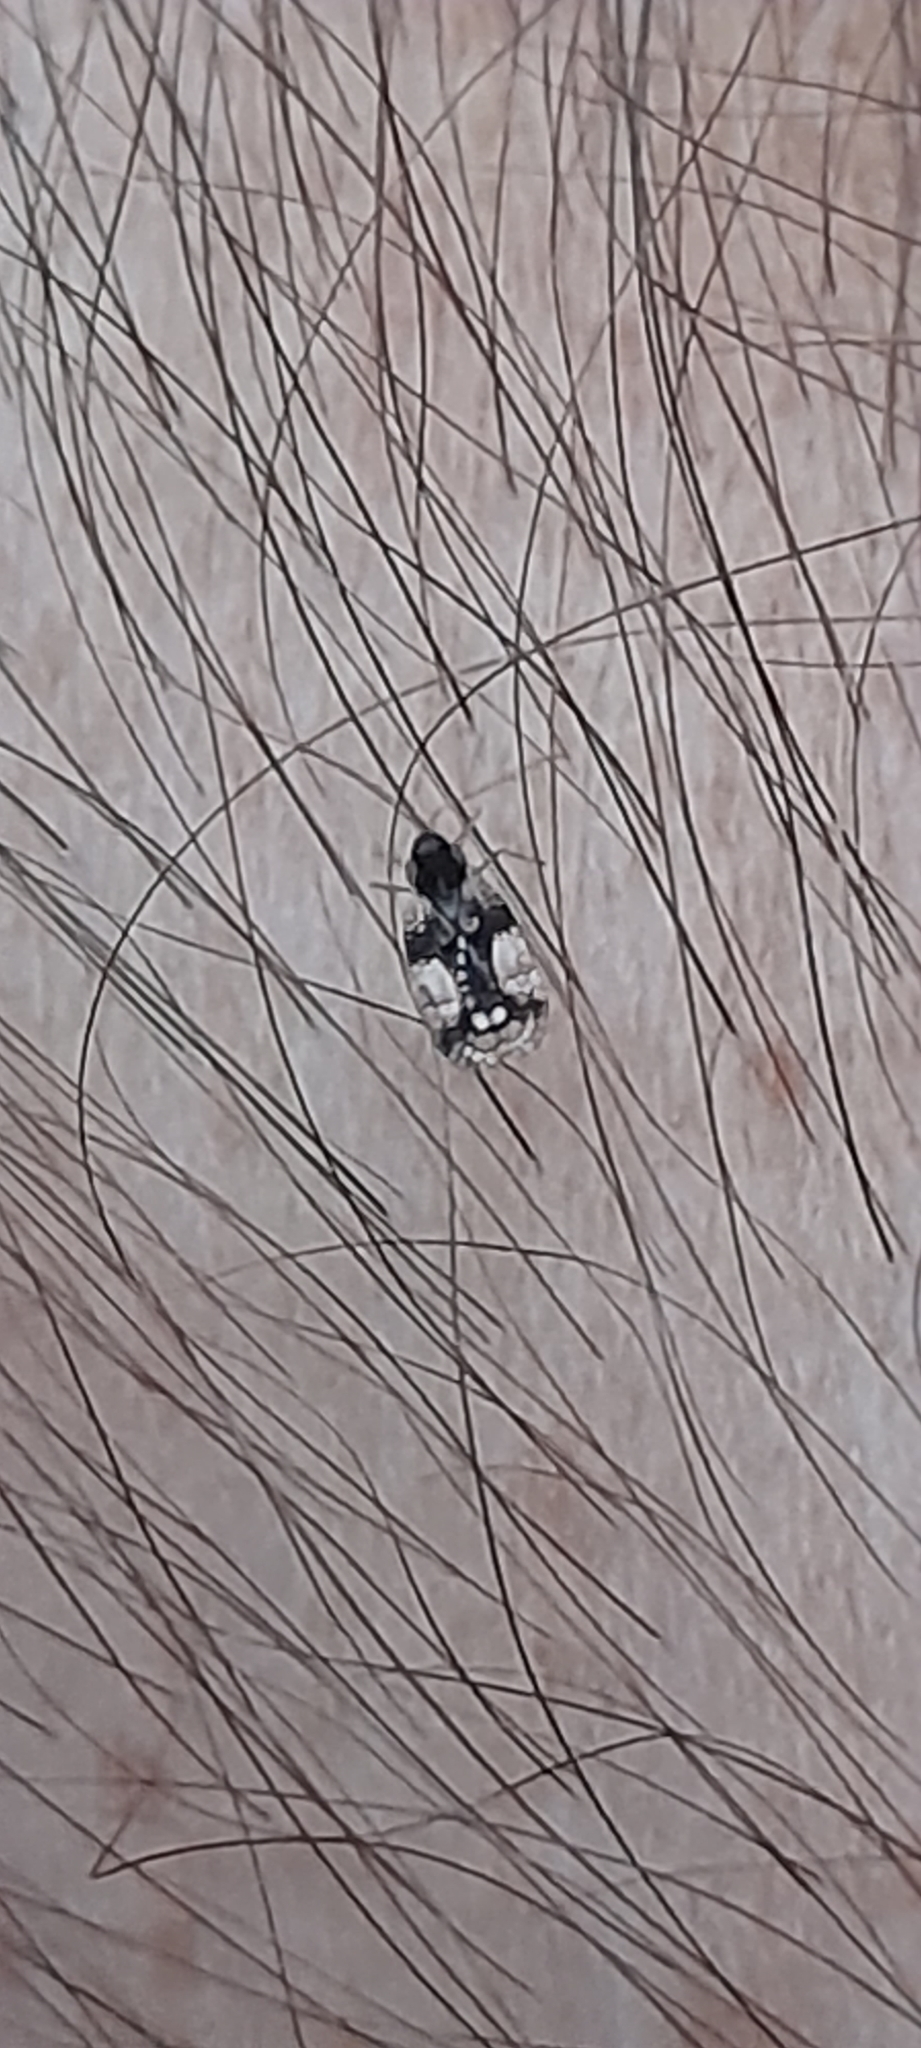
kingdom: Animalia
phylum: Arthropoda
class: Insecta
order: Hemiptera
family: Tingidae
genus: Stephanitis
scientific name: Stephanitis takeyai
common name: Andromeda lacebug
